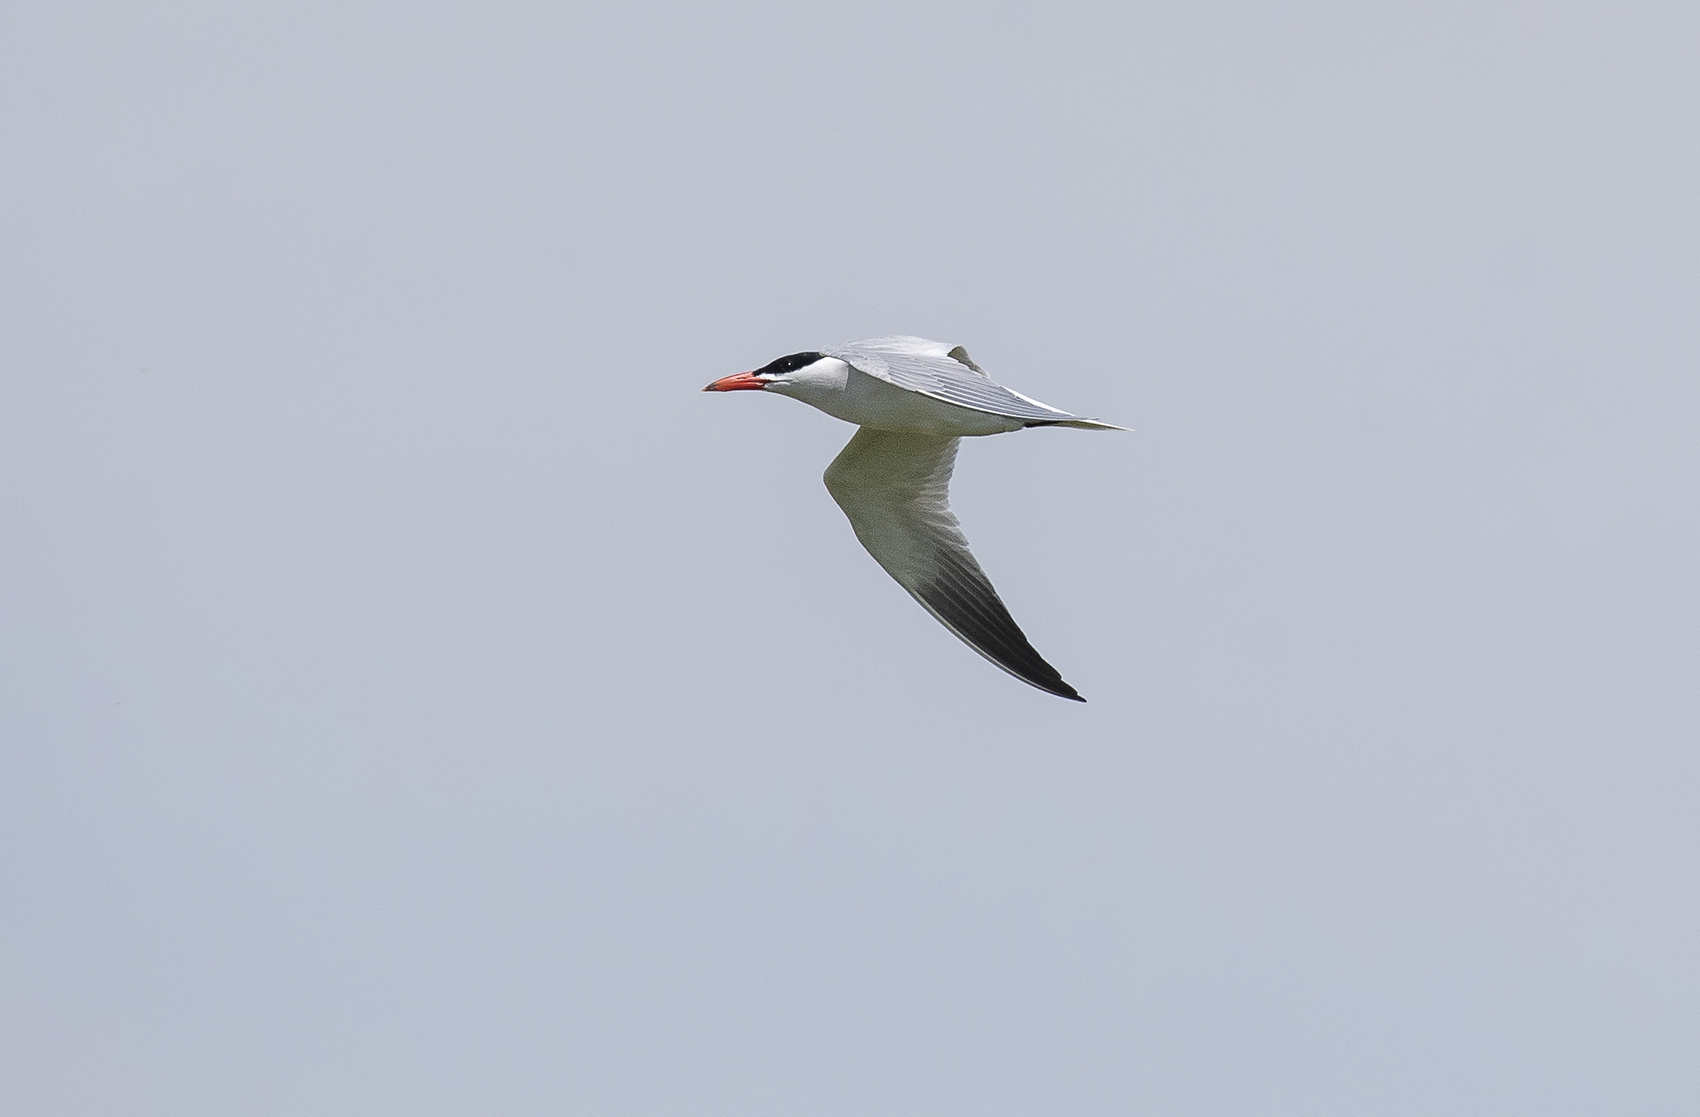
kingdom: Animalia
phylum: Chordata
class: Aves
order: Charadriiformes
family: Laridae
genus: Hydroprogne
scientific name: Hydroprogne caspia
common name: Caspian tern
